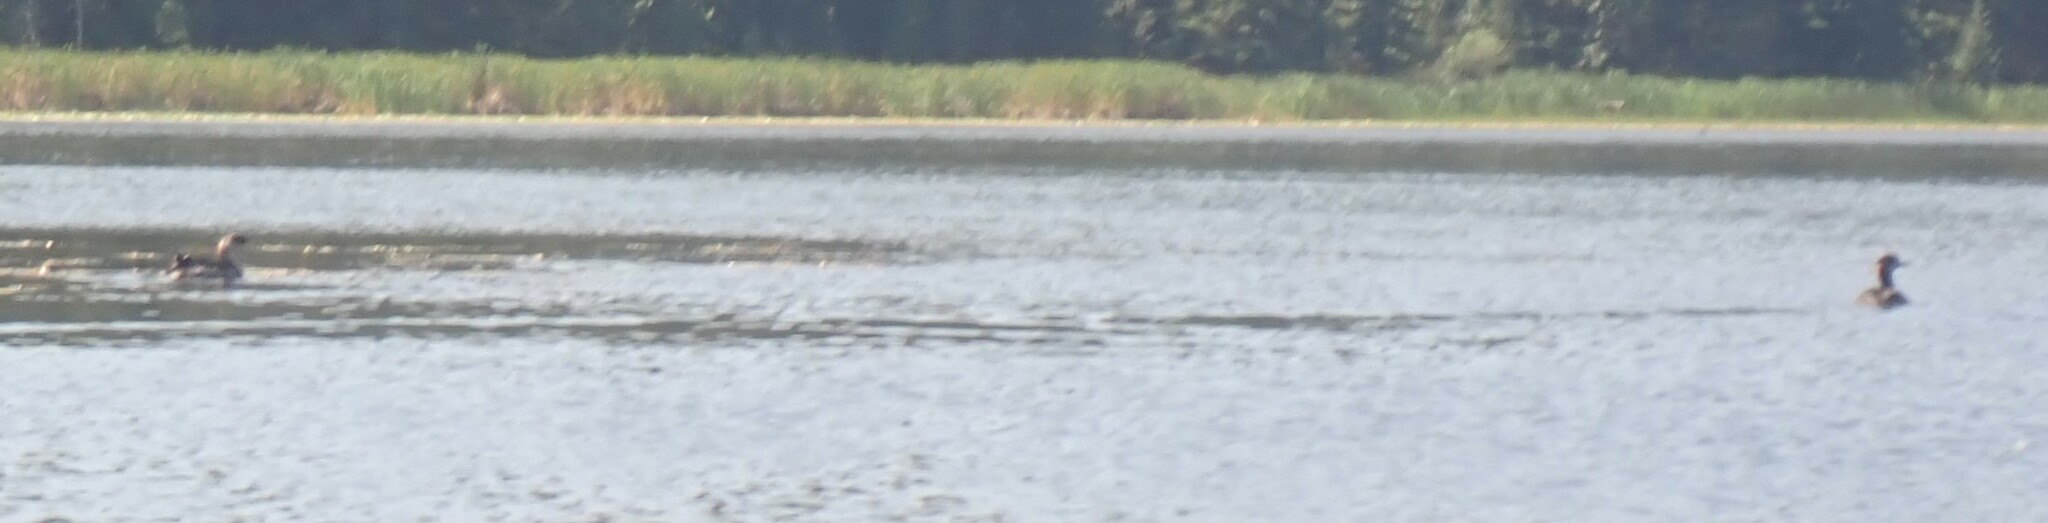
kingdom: Animalia
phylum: Chordata
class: Aves
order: Podicipediformes
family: Podicipedidae
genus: Podiceps
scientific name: Podiceps grisegena
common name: Red-necked grebe
